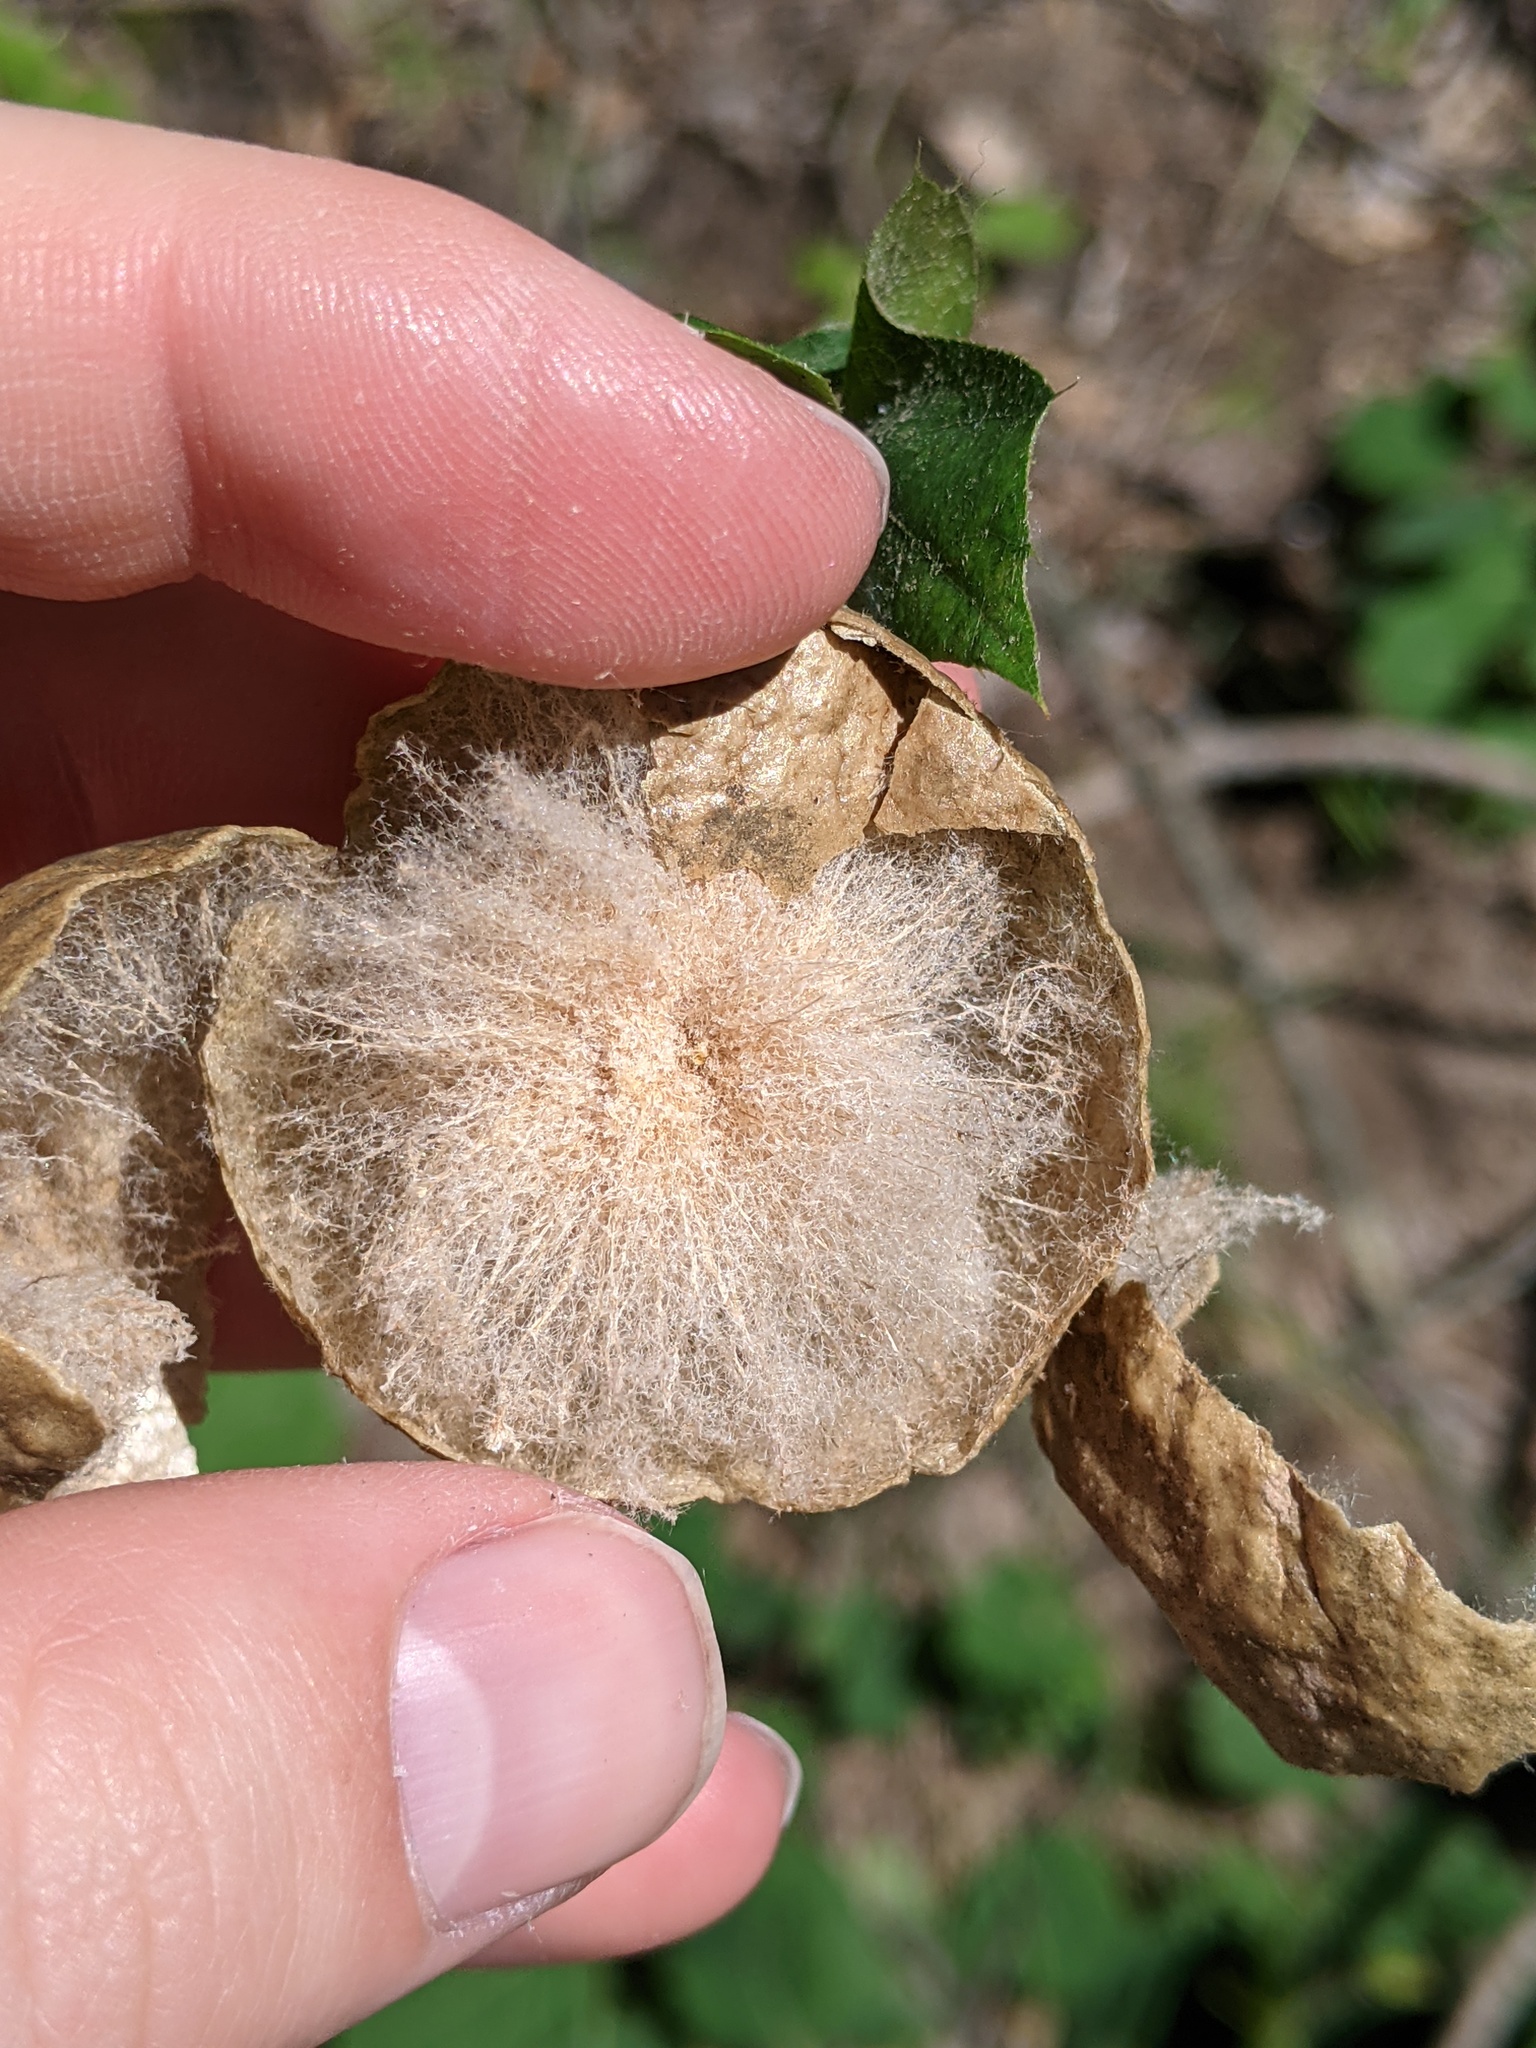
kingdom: Animalia
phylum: Arthropoda
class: Insecta
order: Hymenoptera
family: Cynipidae
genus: Amphibolips
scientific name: Amphibolips
